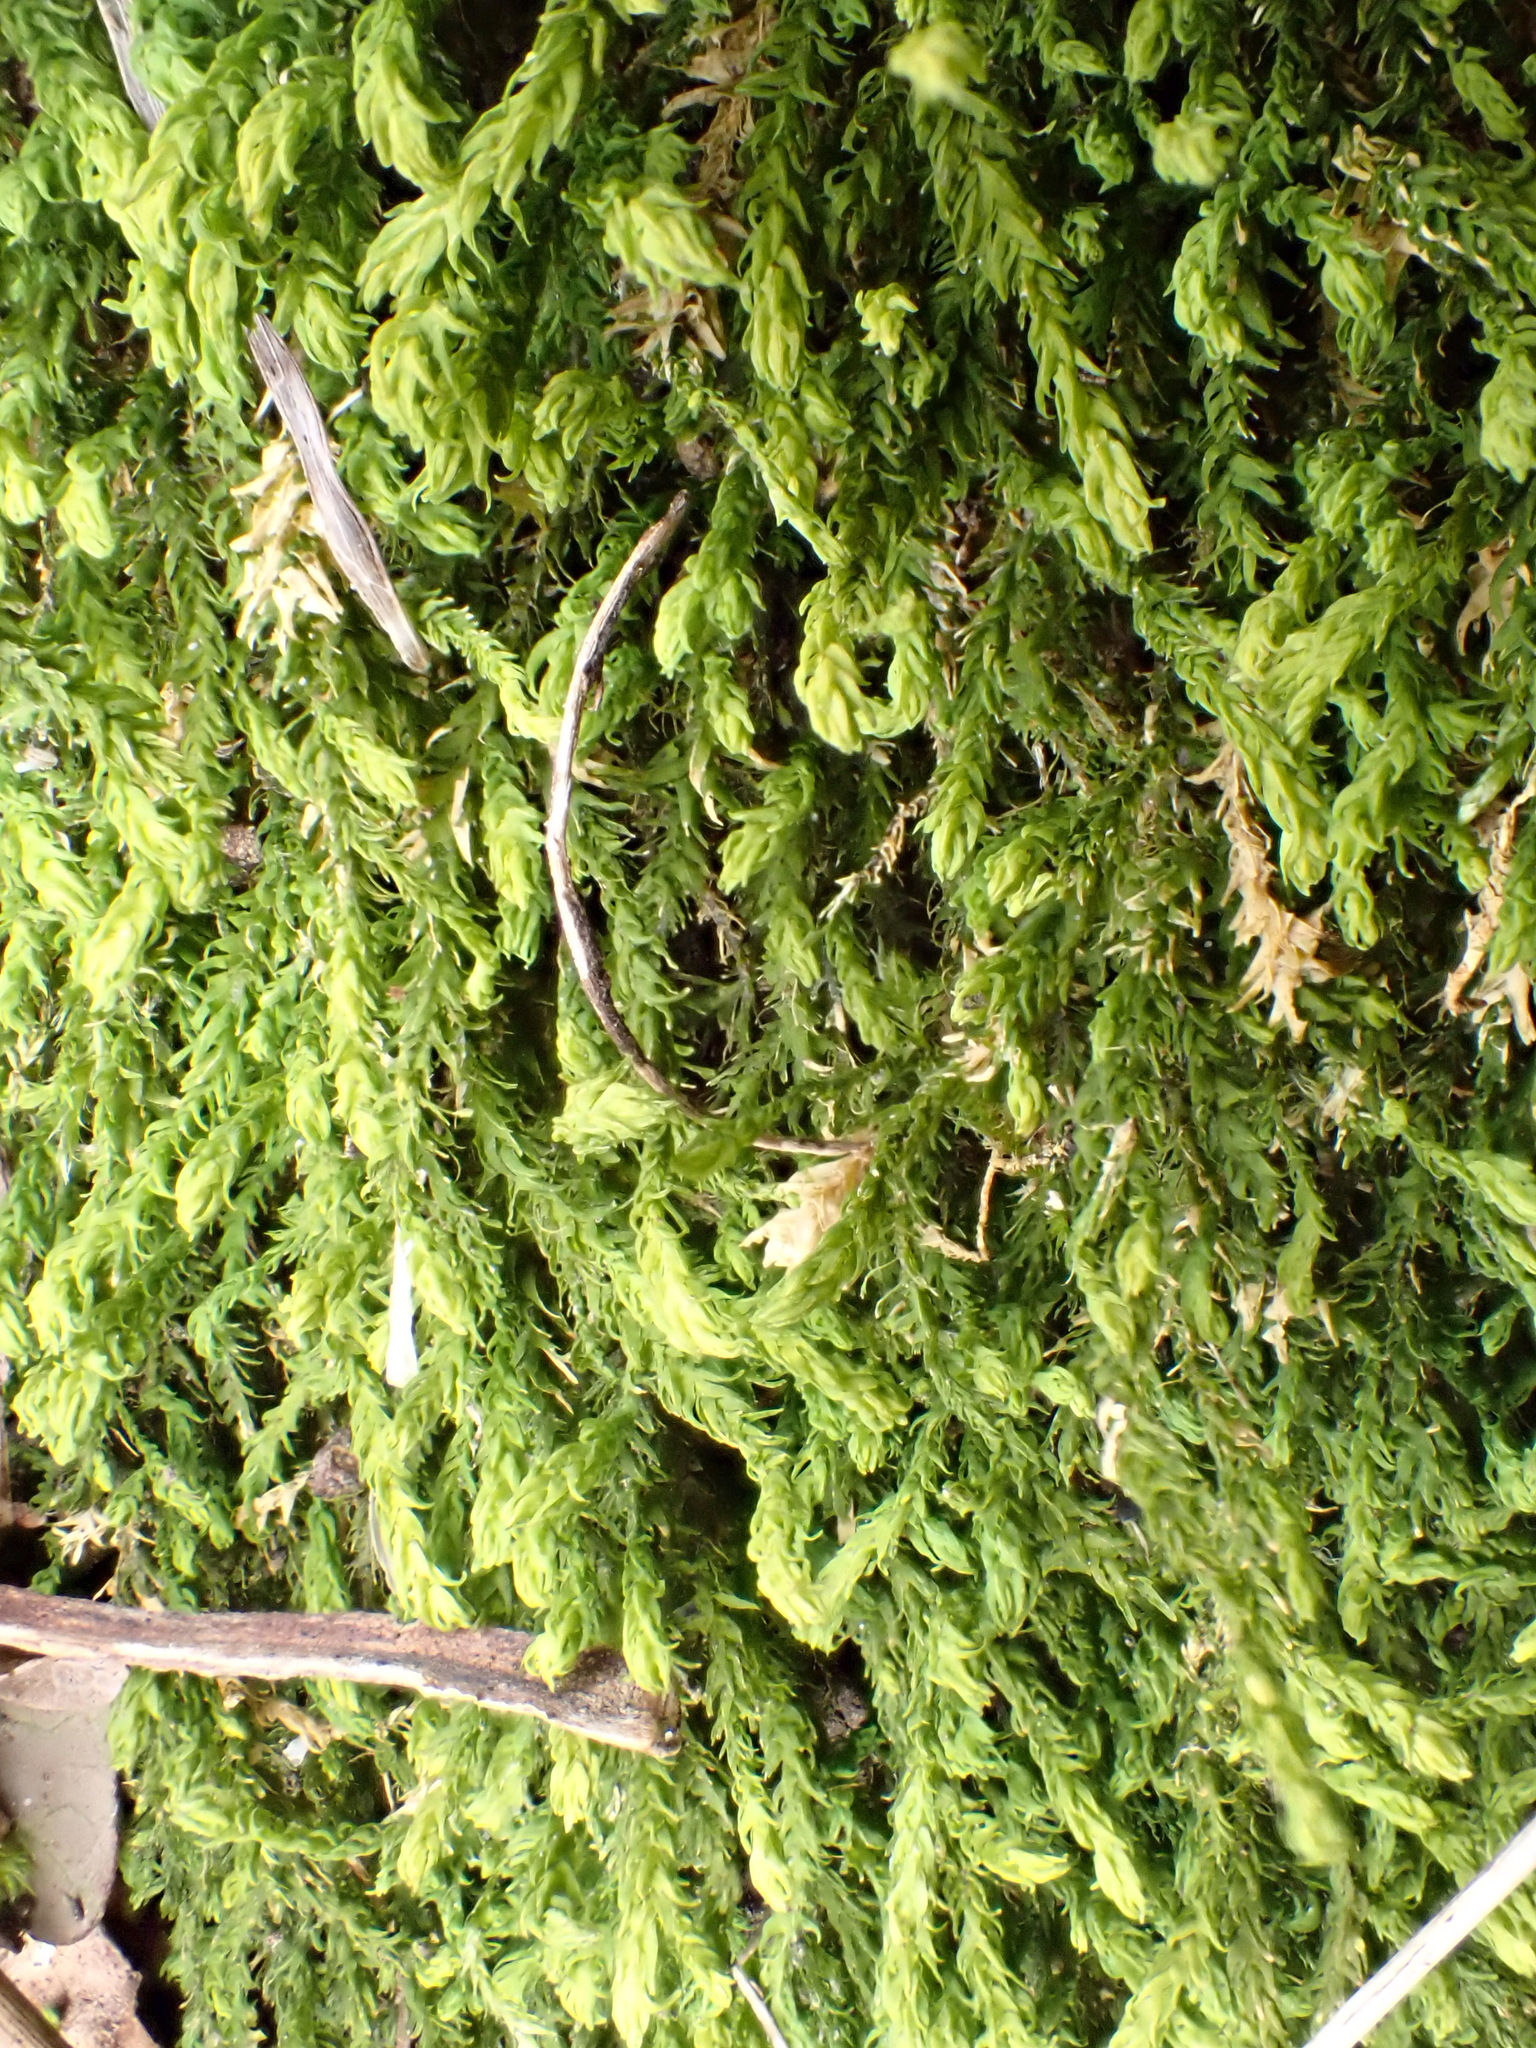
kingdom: Plantae
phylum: Bryophyta
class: Bryopsida
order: Hypnales
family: Anomodontaceae
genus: Anomodon
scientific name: Anomodon viticulosus
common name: Tall anomodon
